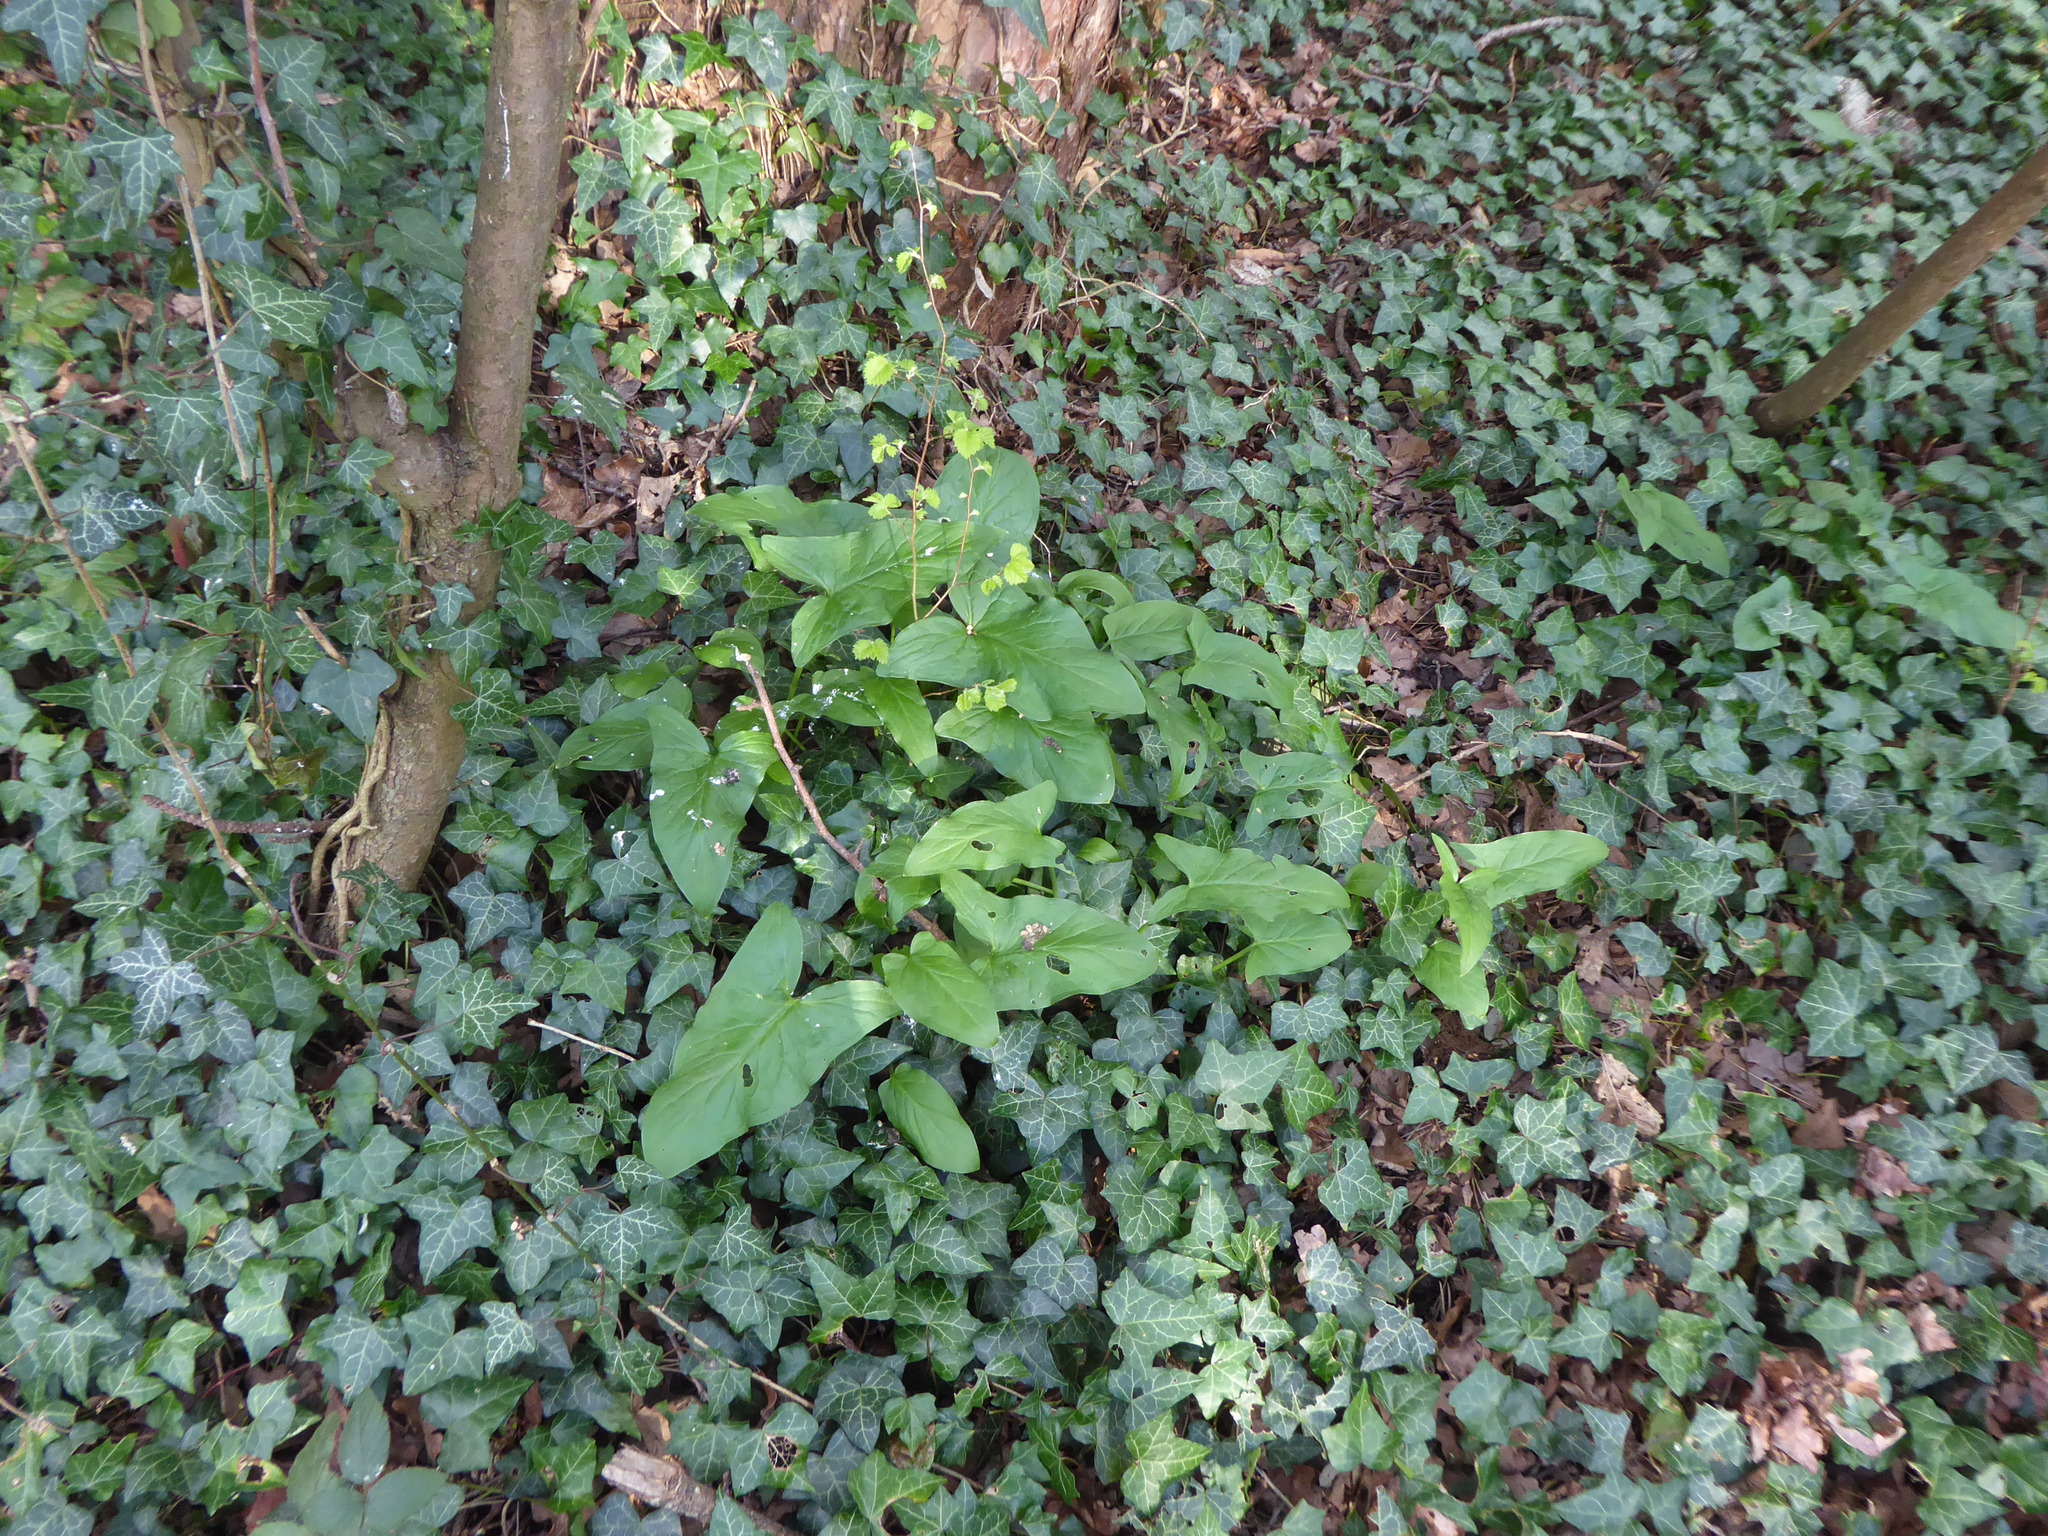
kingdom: Plantae
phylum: Tracheophyta
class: Liliopsida
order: Alismatales
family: Araceae
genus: Arum
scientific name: Arum maculatum
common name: Lords-and-ladies
